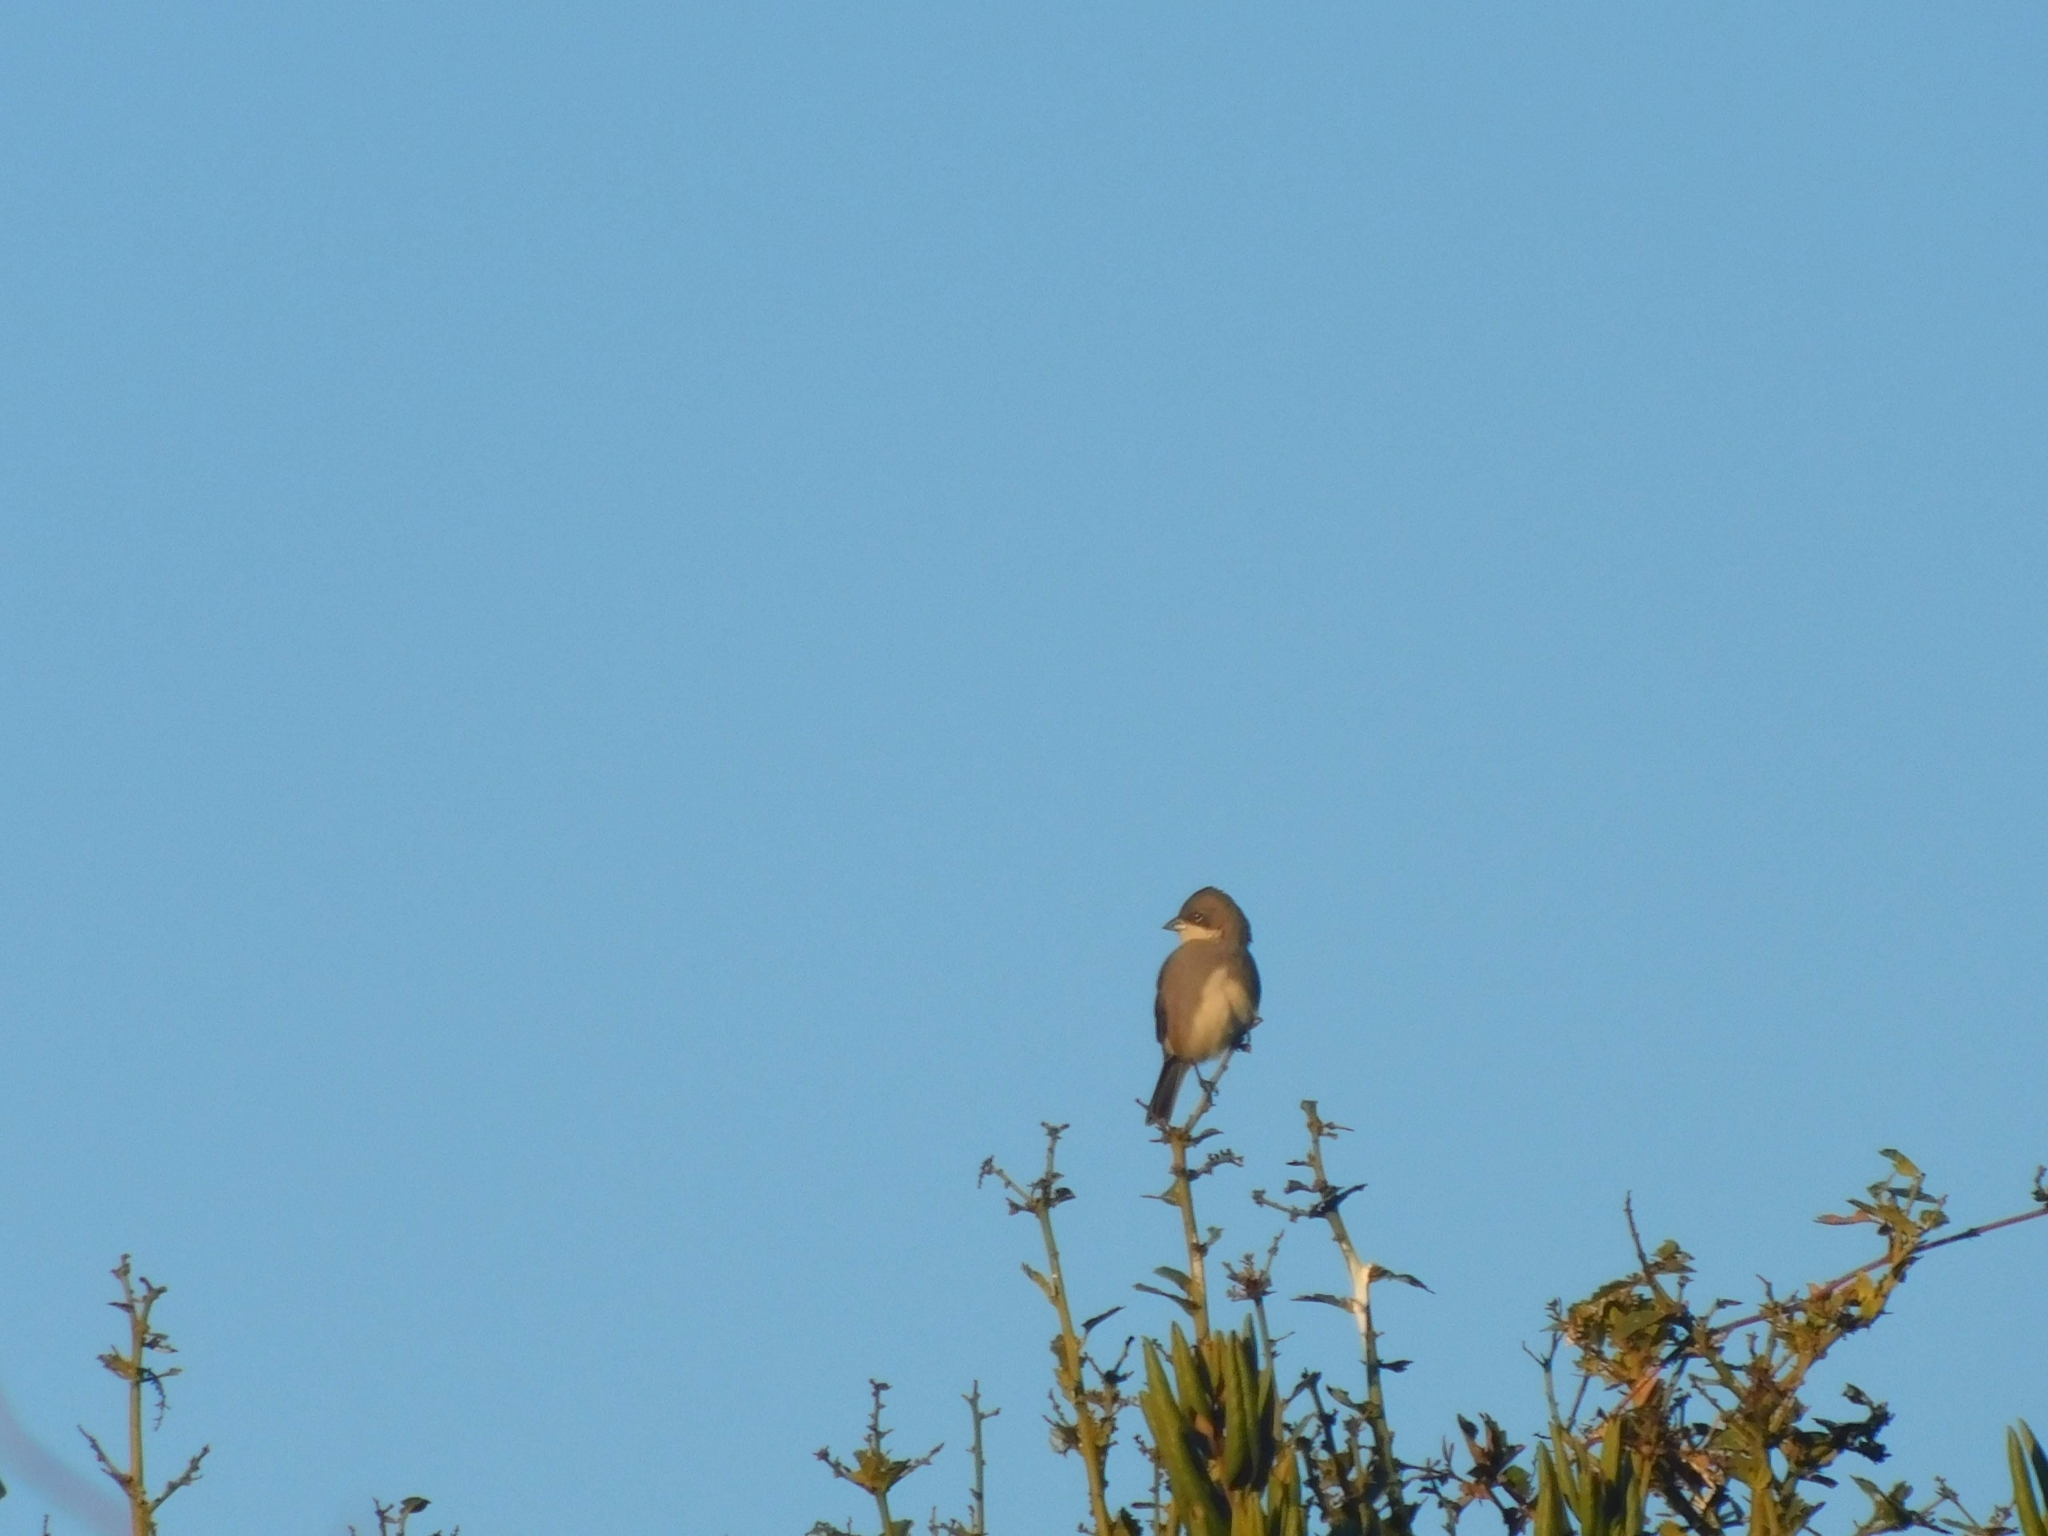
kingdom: Animalia
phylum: Chordata
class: Aves
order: Passeriformes
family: Thraupidae
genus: Diuca
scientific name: Diuca diuca
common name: Common diuca finch
